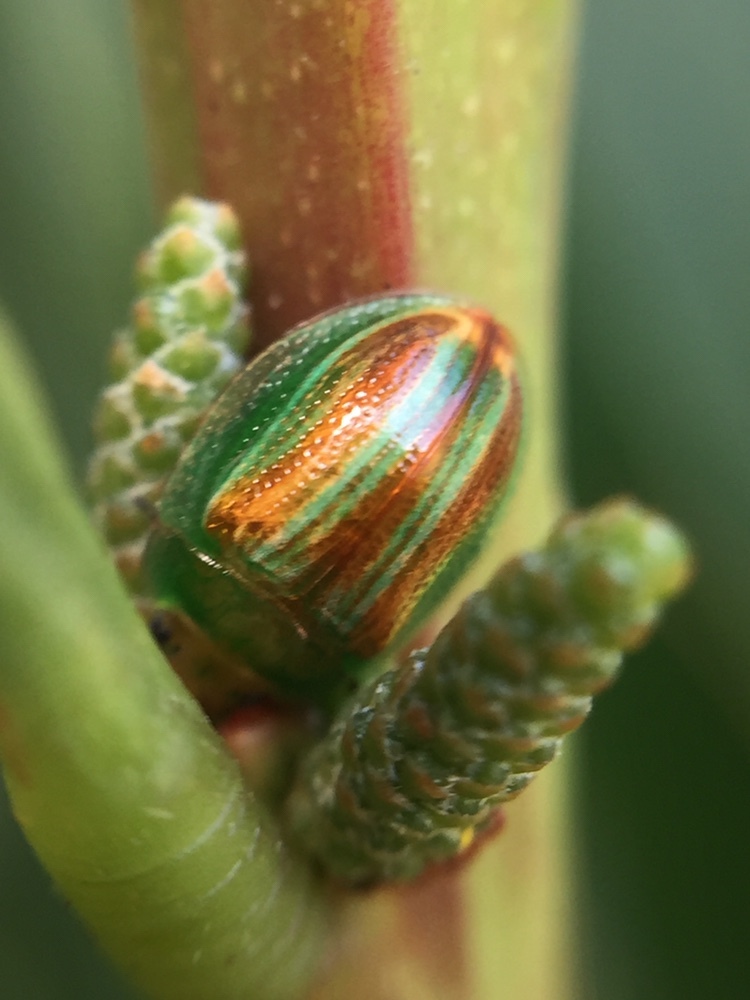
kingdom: Animalia
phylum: Arthropoda
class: Insecta
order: Coleoptera
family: Chrysomelidae
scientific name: Chrysomelidae
